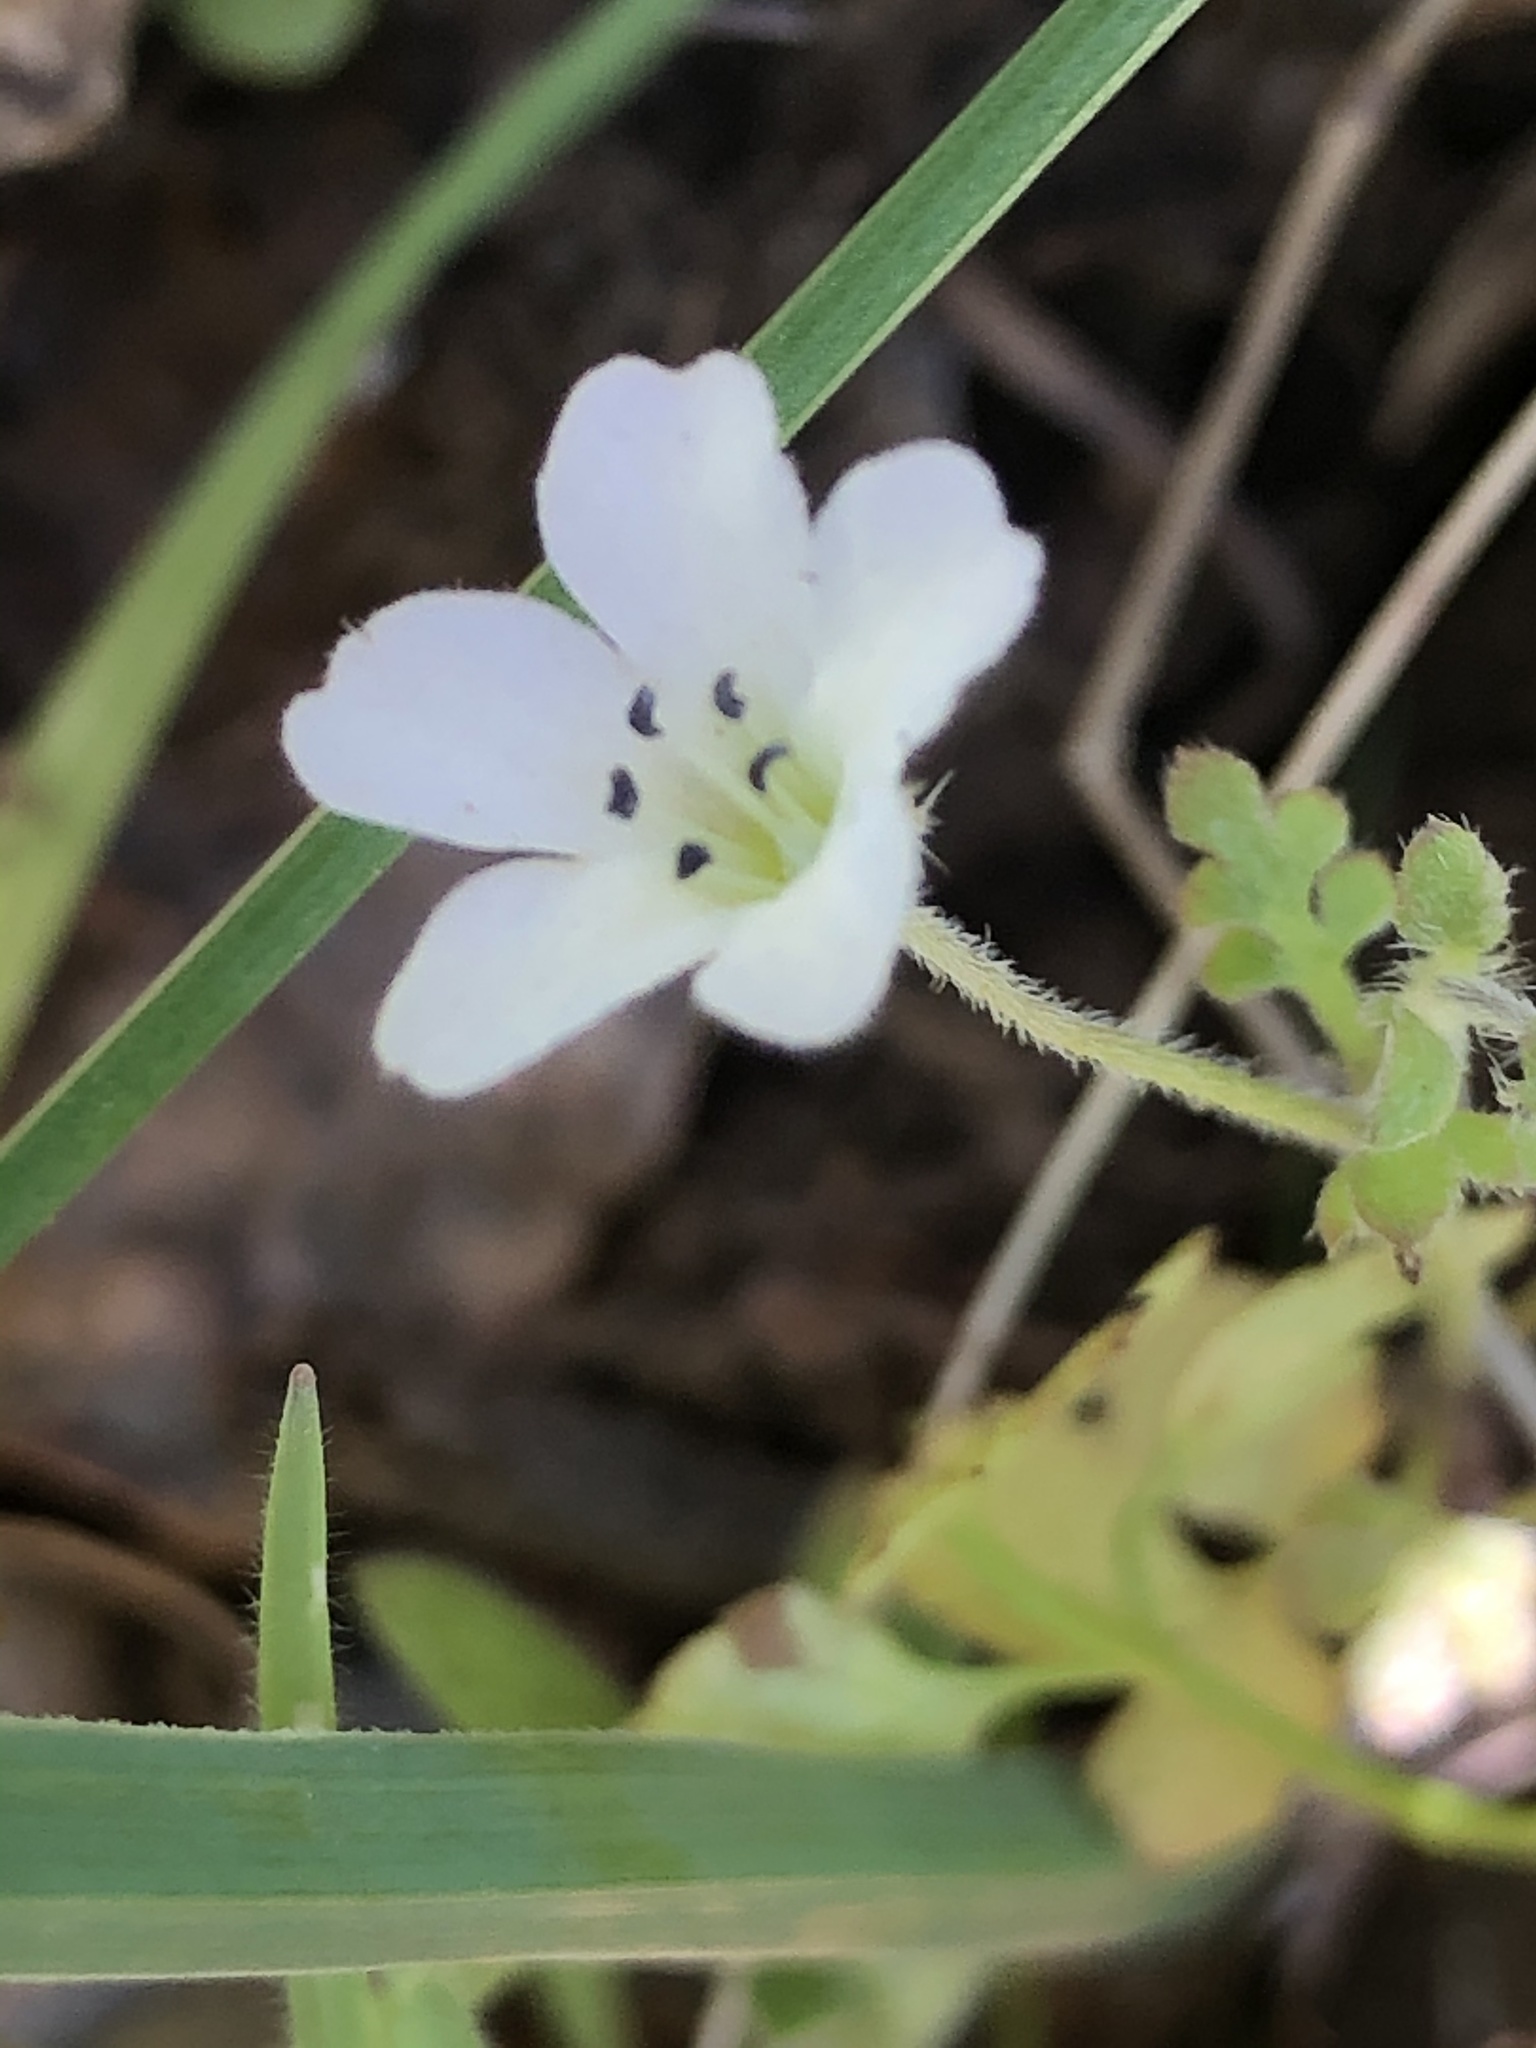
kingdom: Plantae
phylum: Tracheophyta
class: Magnoliopsida
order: Boraginales
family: Hydrophyllaceae
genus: Nemophila
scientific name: Nemophila heterophylla
